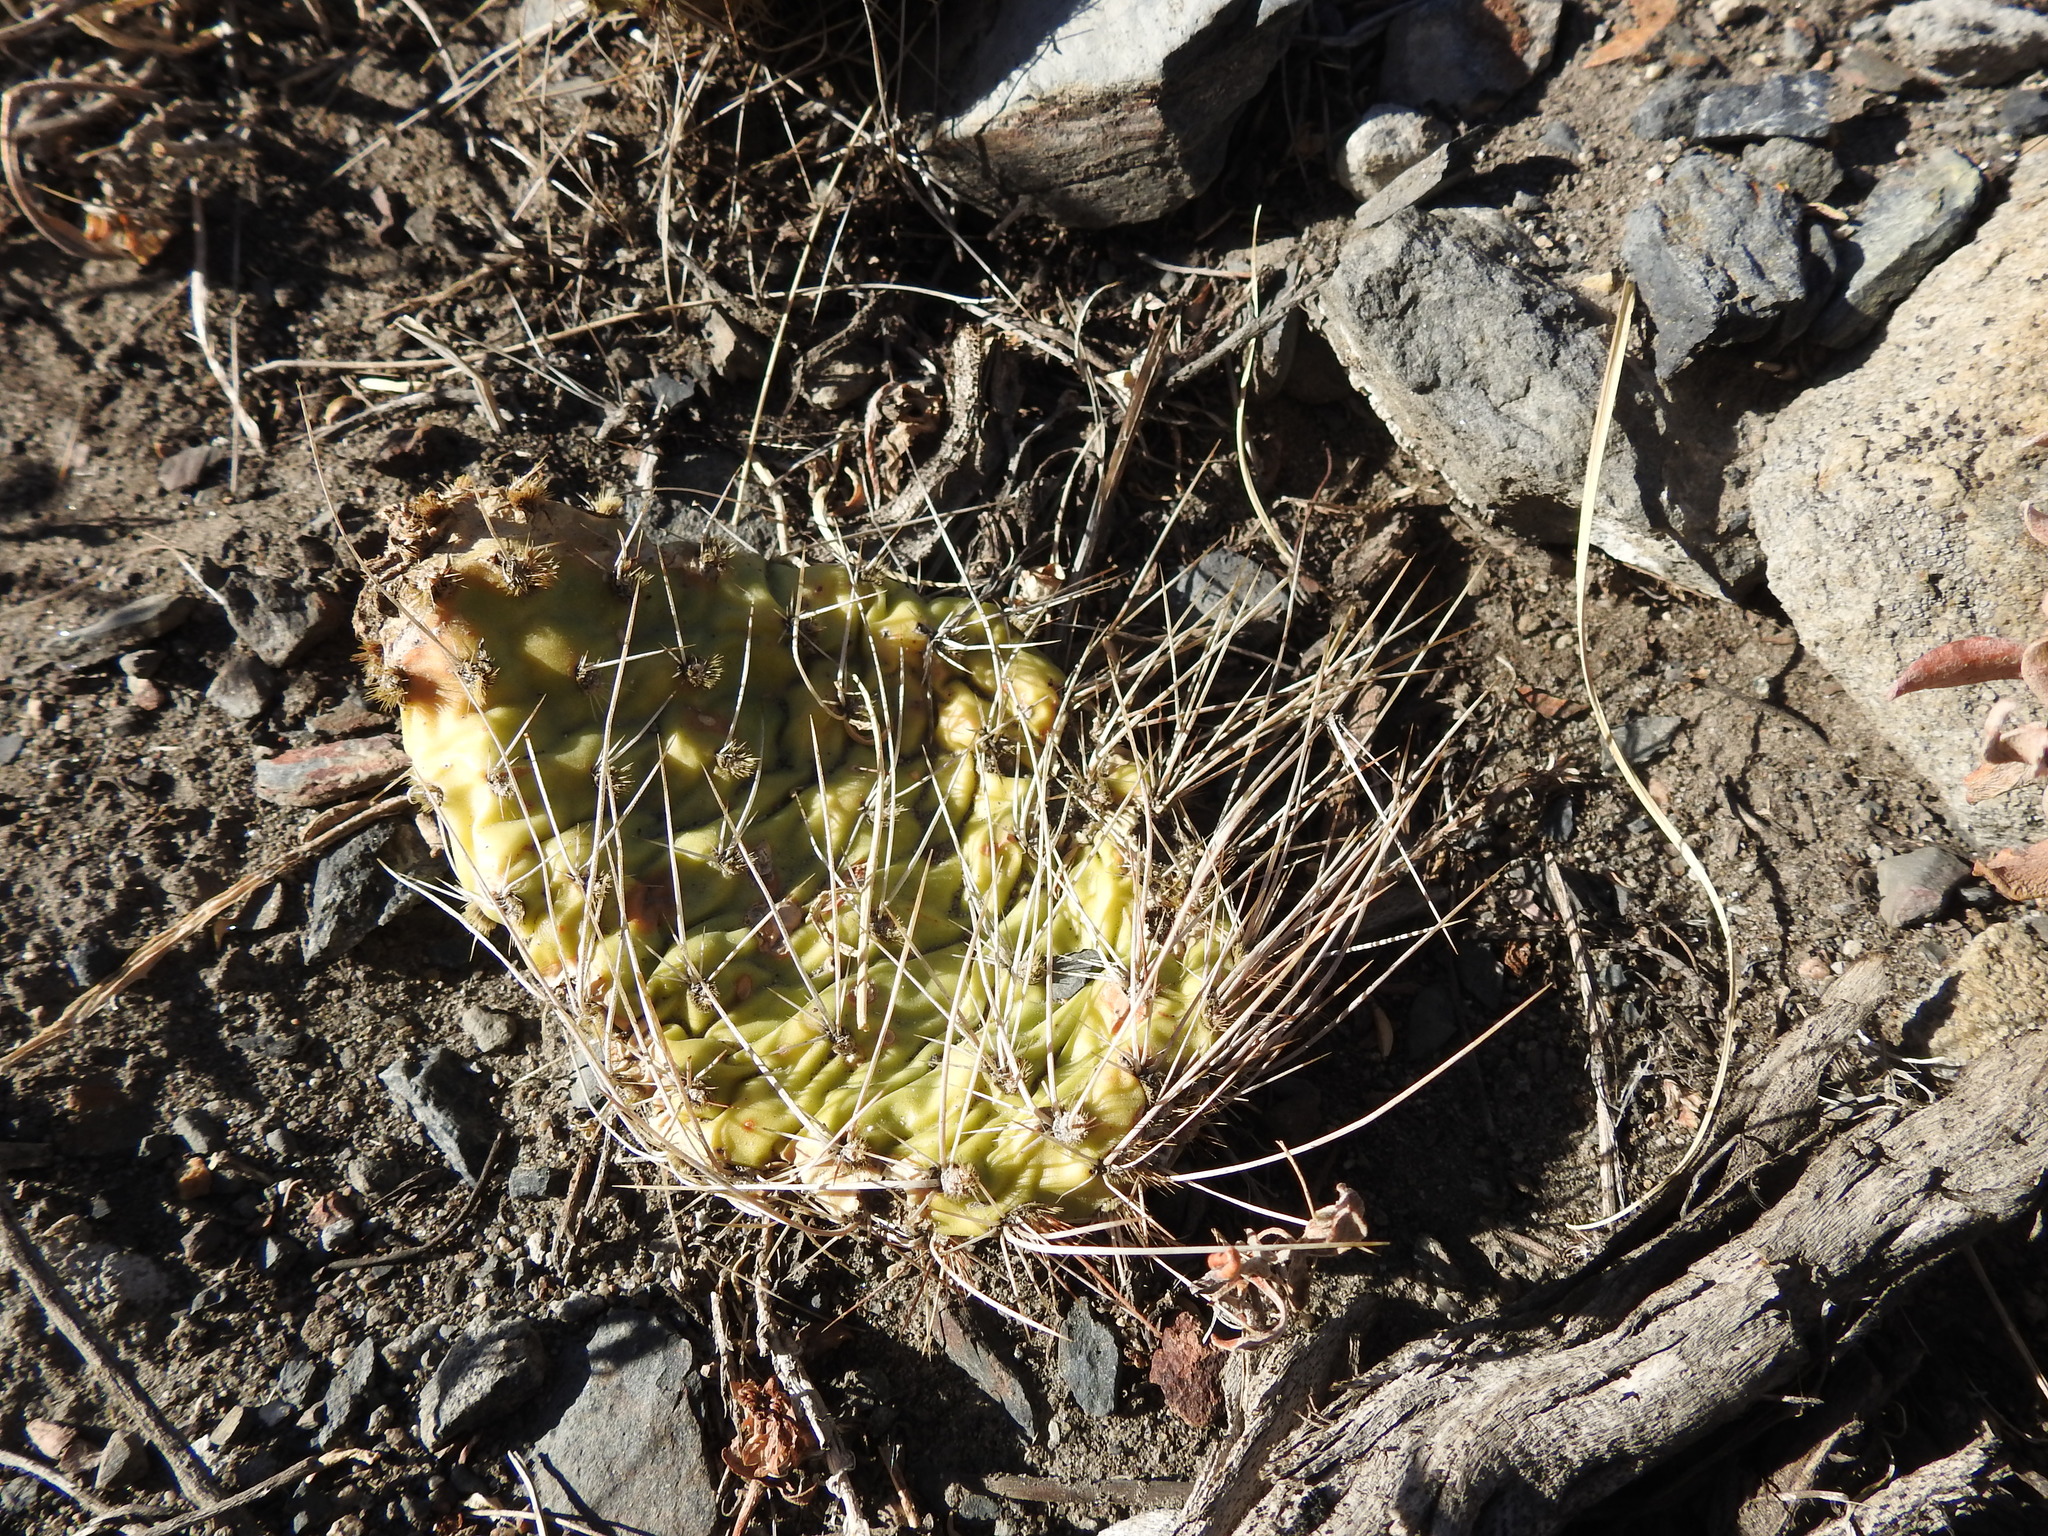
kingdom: Plantae
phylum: Tracheophyta
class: Magnoliopsida
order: Caryophyllales
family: Cactaceae
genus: Opuntia
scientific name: Opuntia polyacantha
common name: Plains prickly-pear
